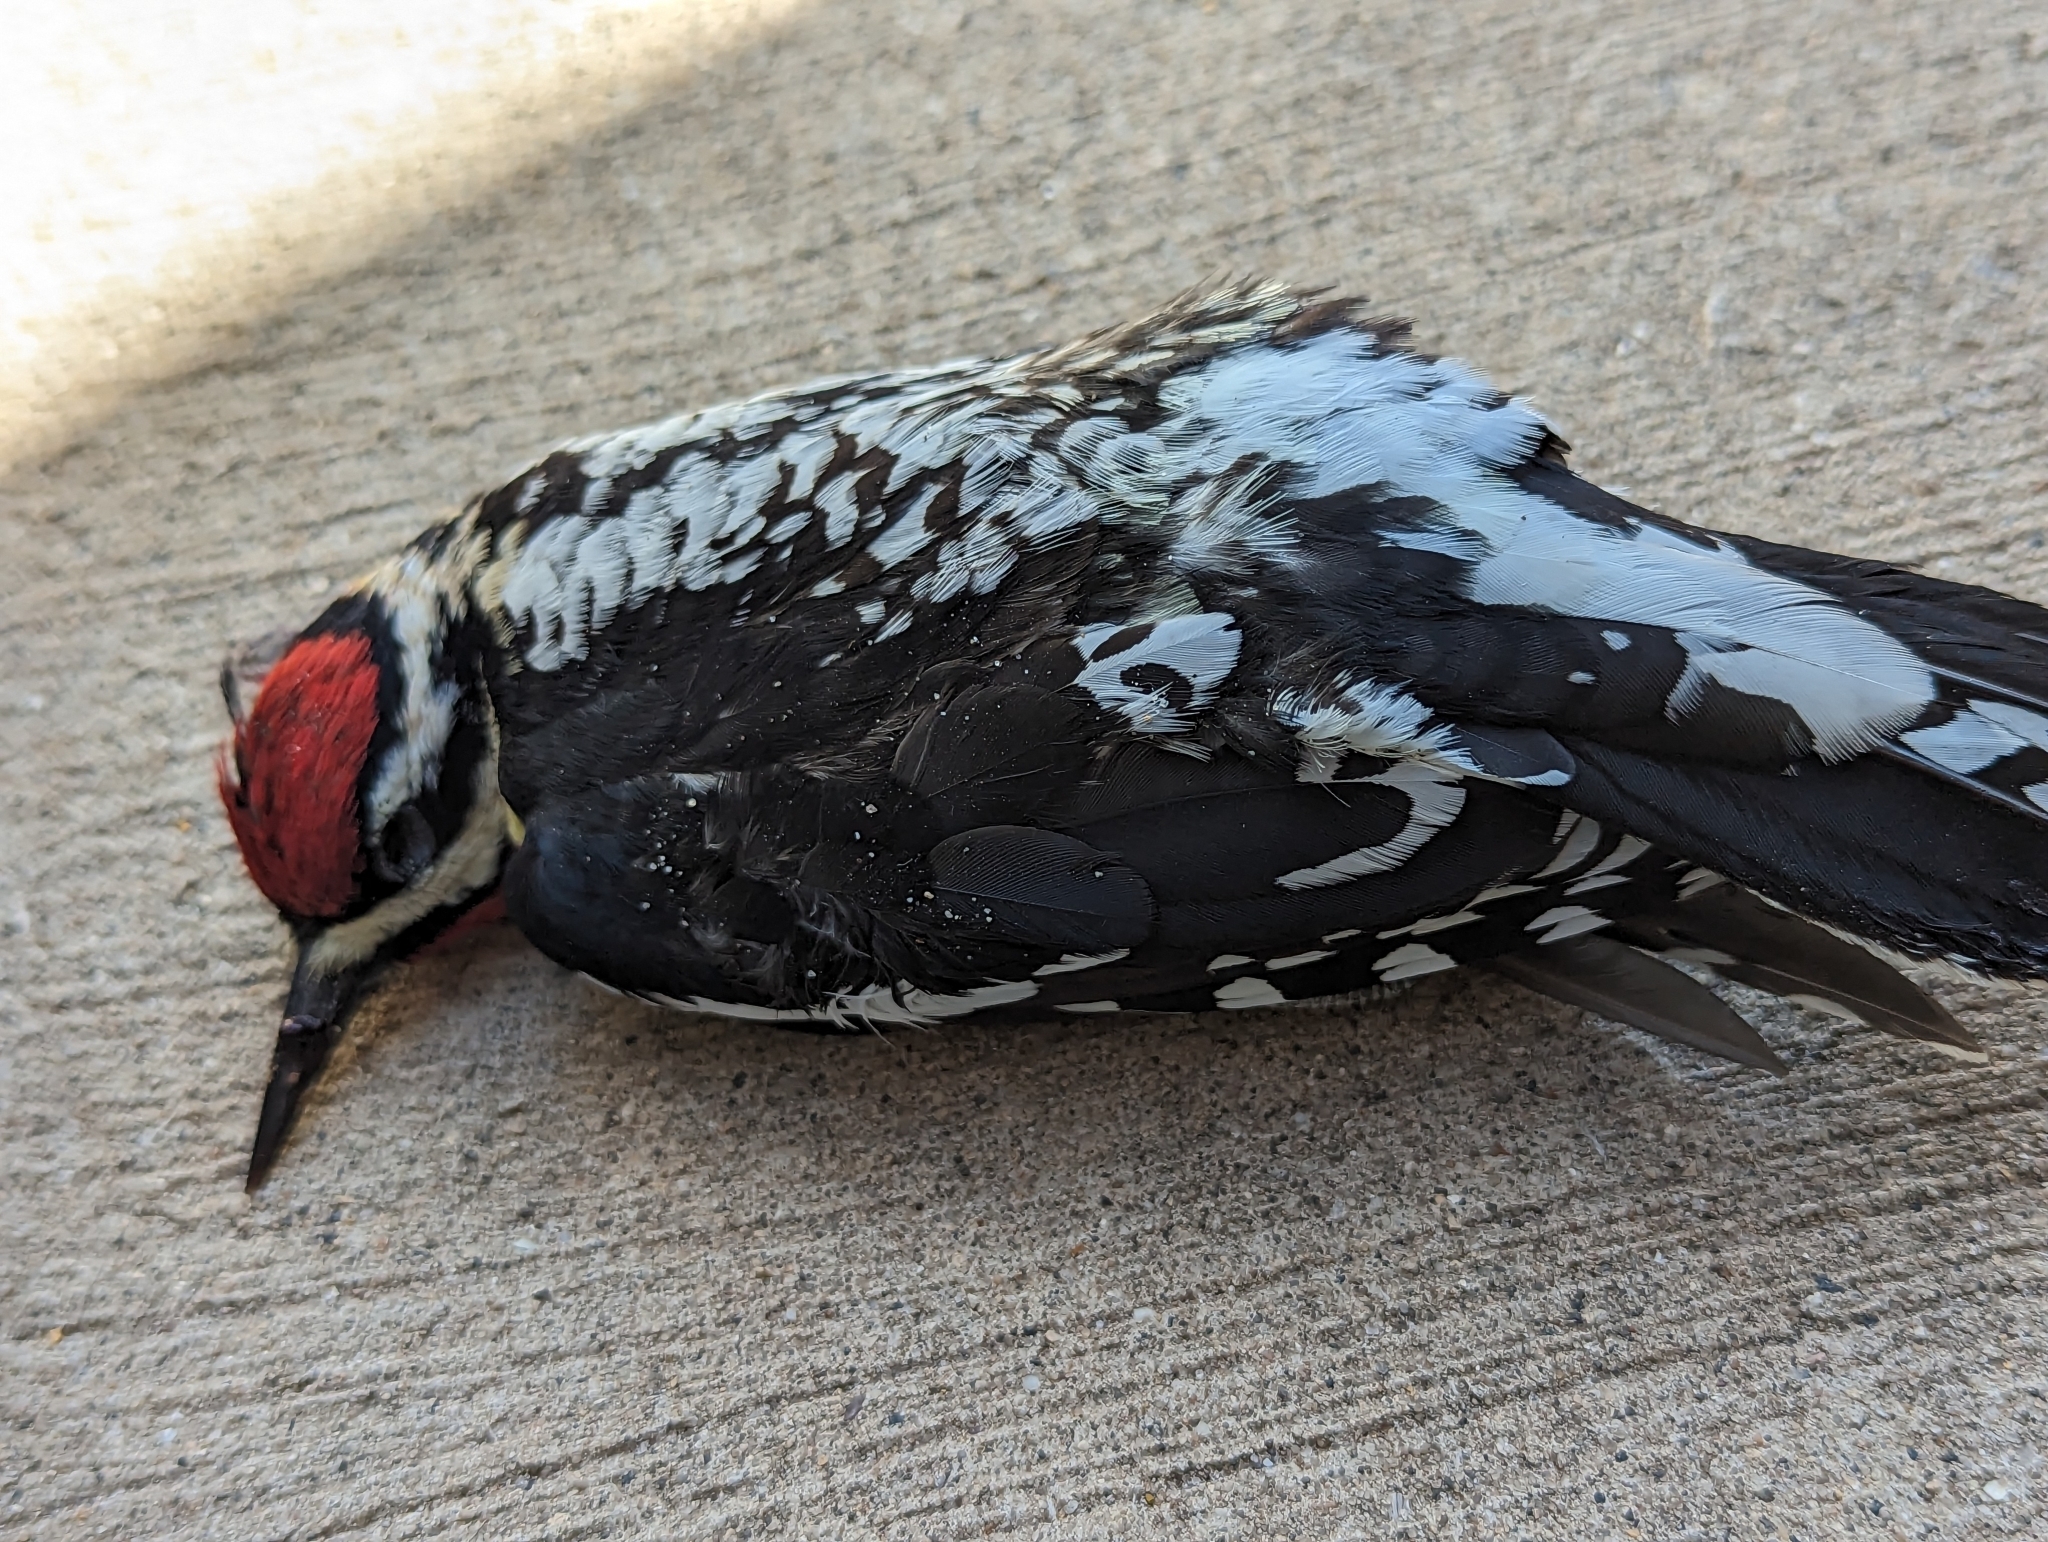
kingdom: Animalia
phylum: Chordata
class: Aves
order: Piciformes
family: Picidae
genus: Sphyrapicus
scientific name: Sphyrapicus varius
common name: Yellow-bellied sapsucker
